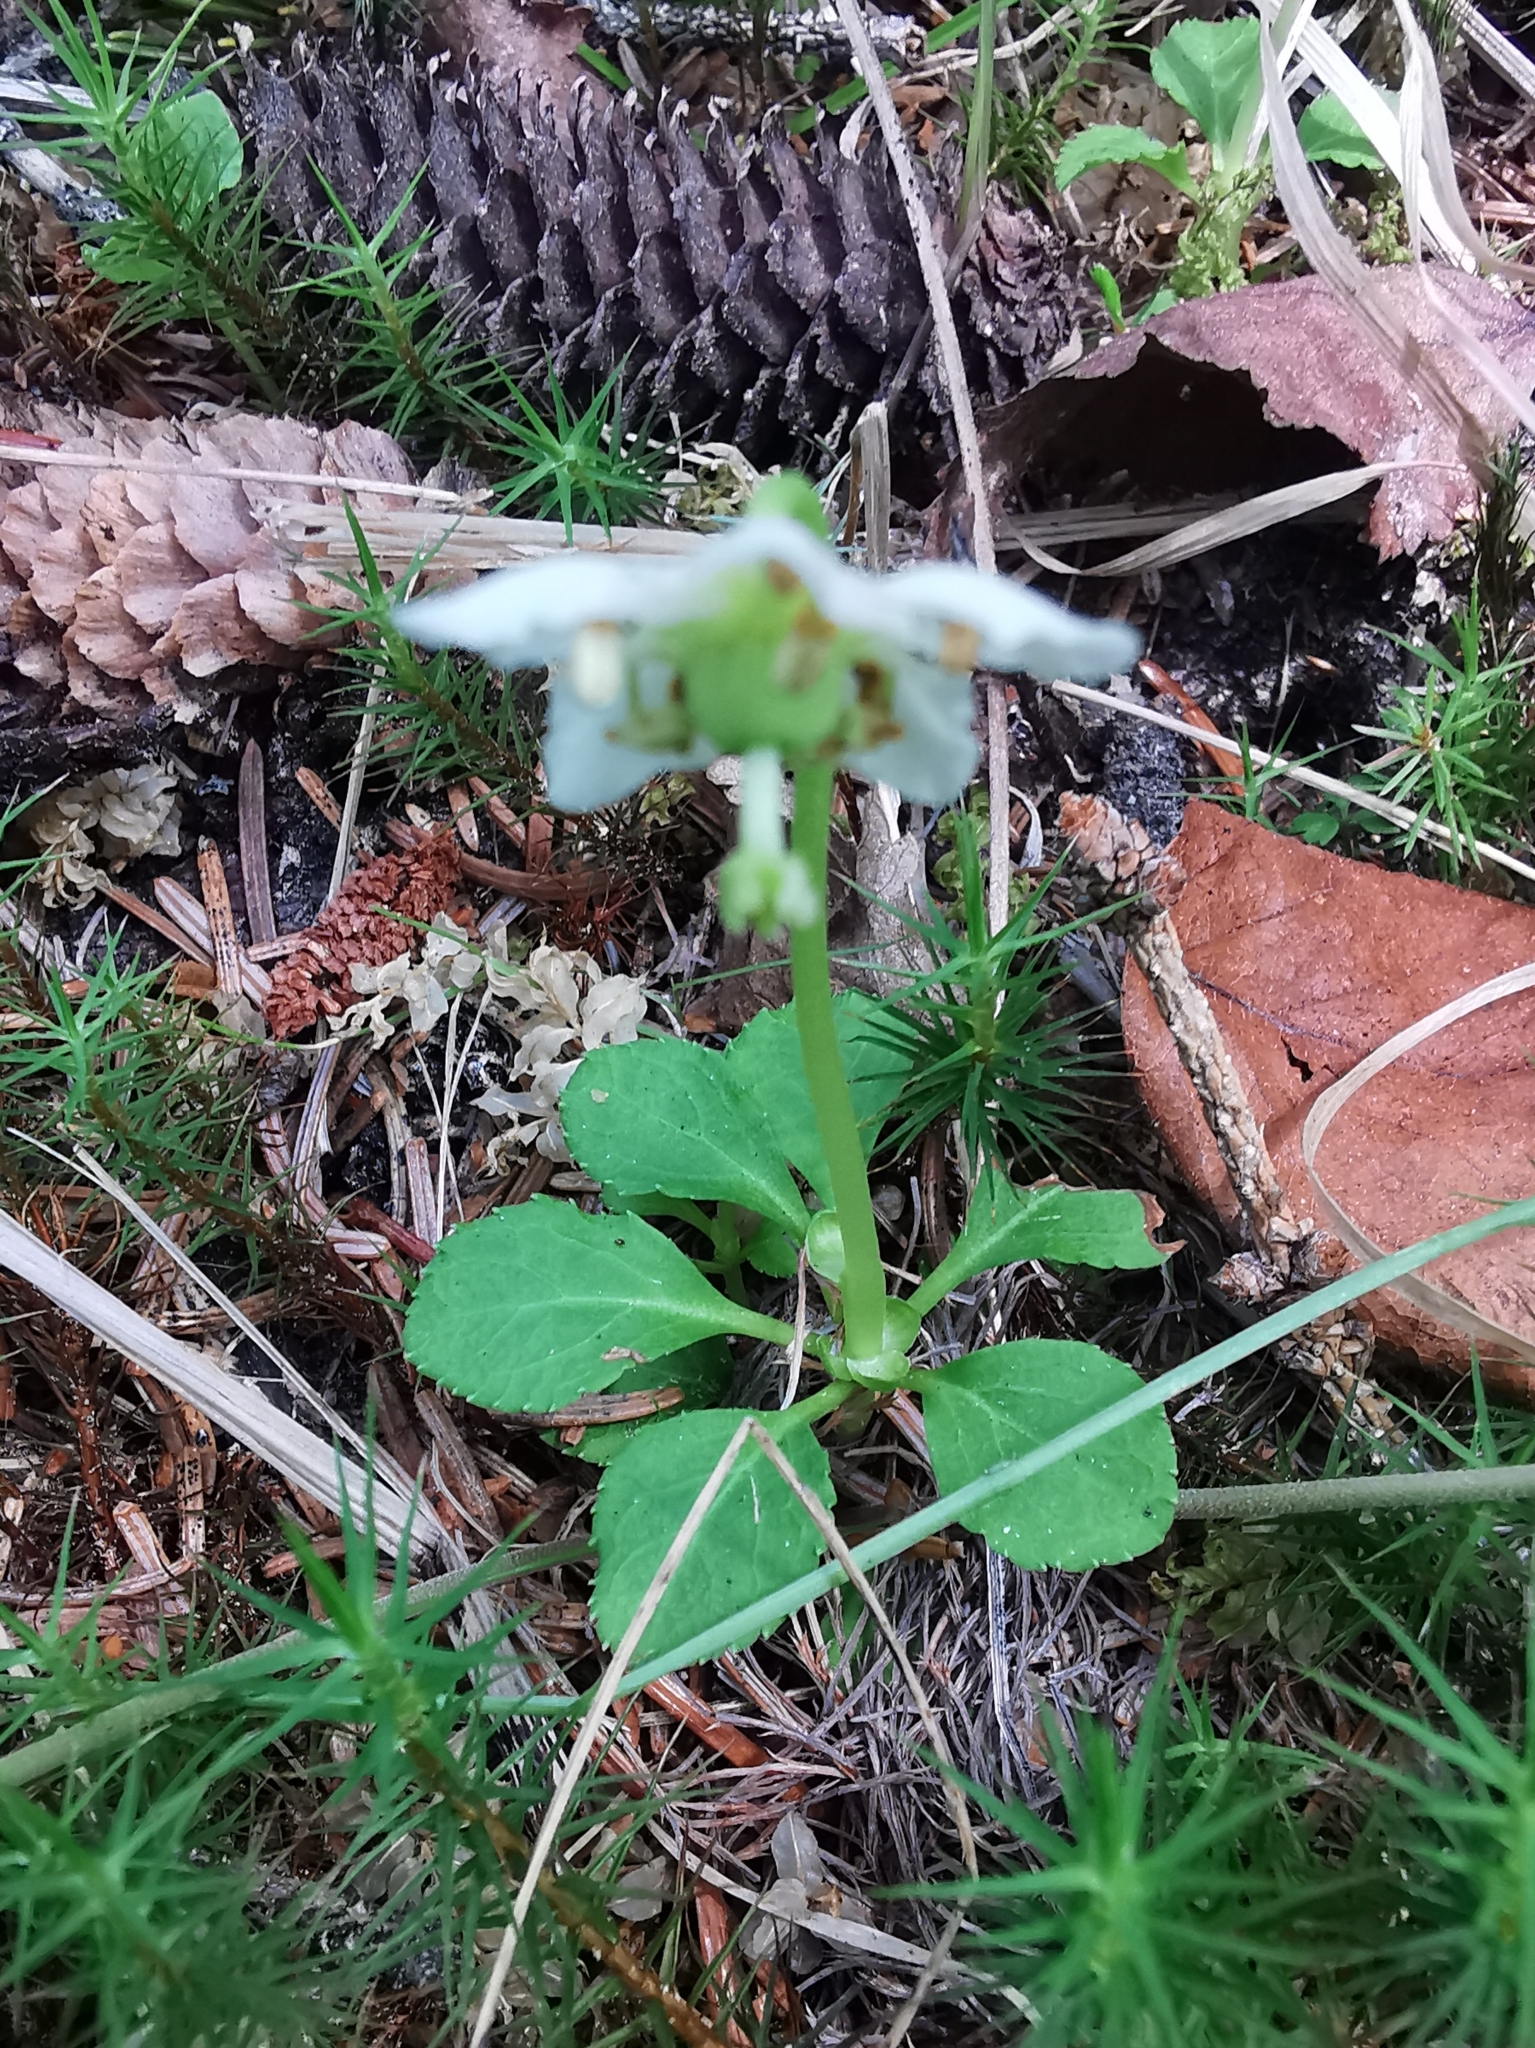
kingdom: Plantae
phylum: Tracheophyta
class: Magnoliopsida
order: Ericales
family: Ericaceae
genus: Moneses
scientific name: Moneses uniflora
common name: One-flowered wintergreen
